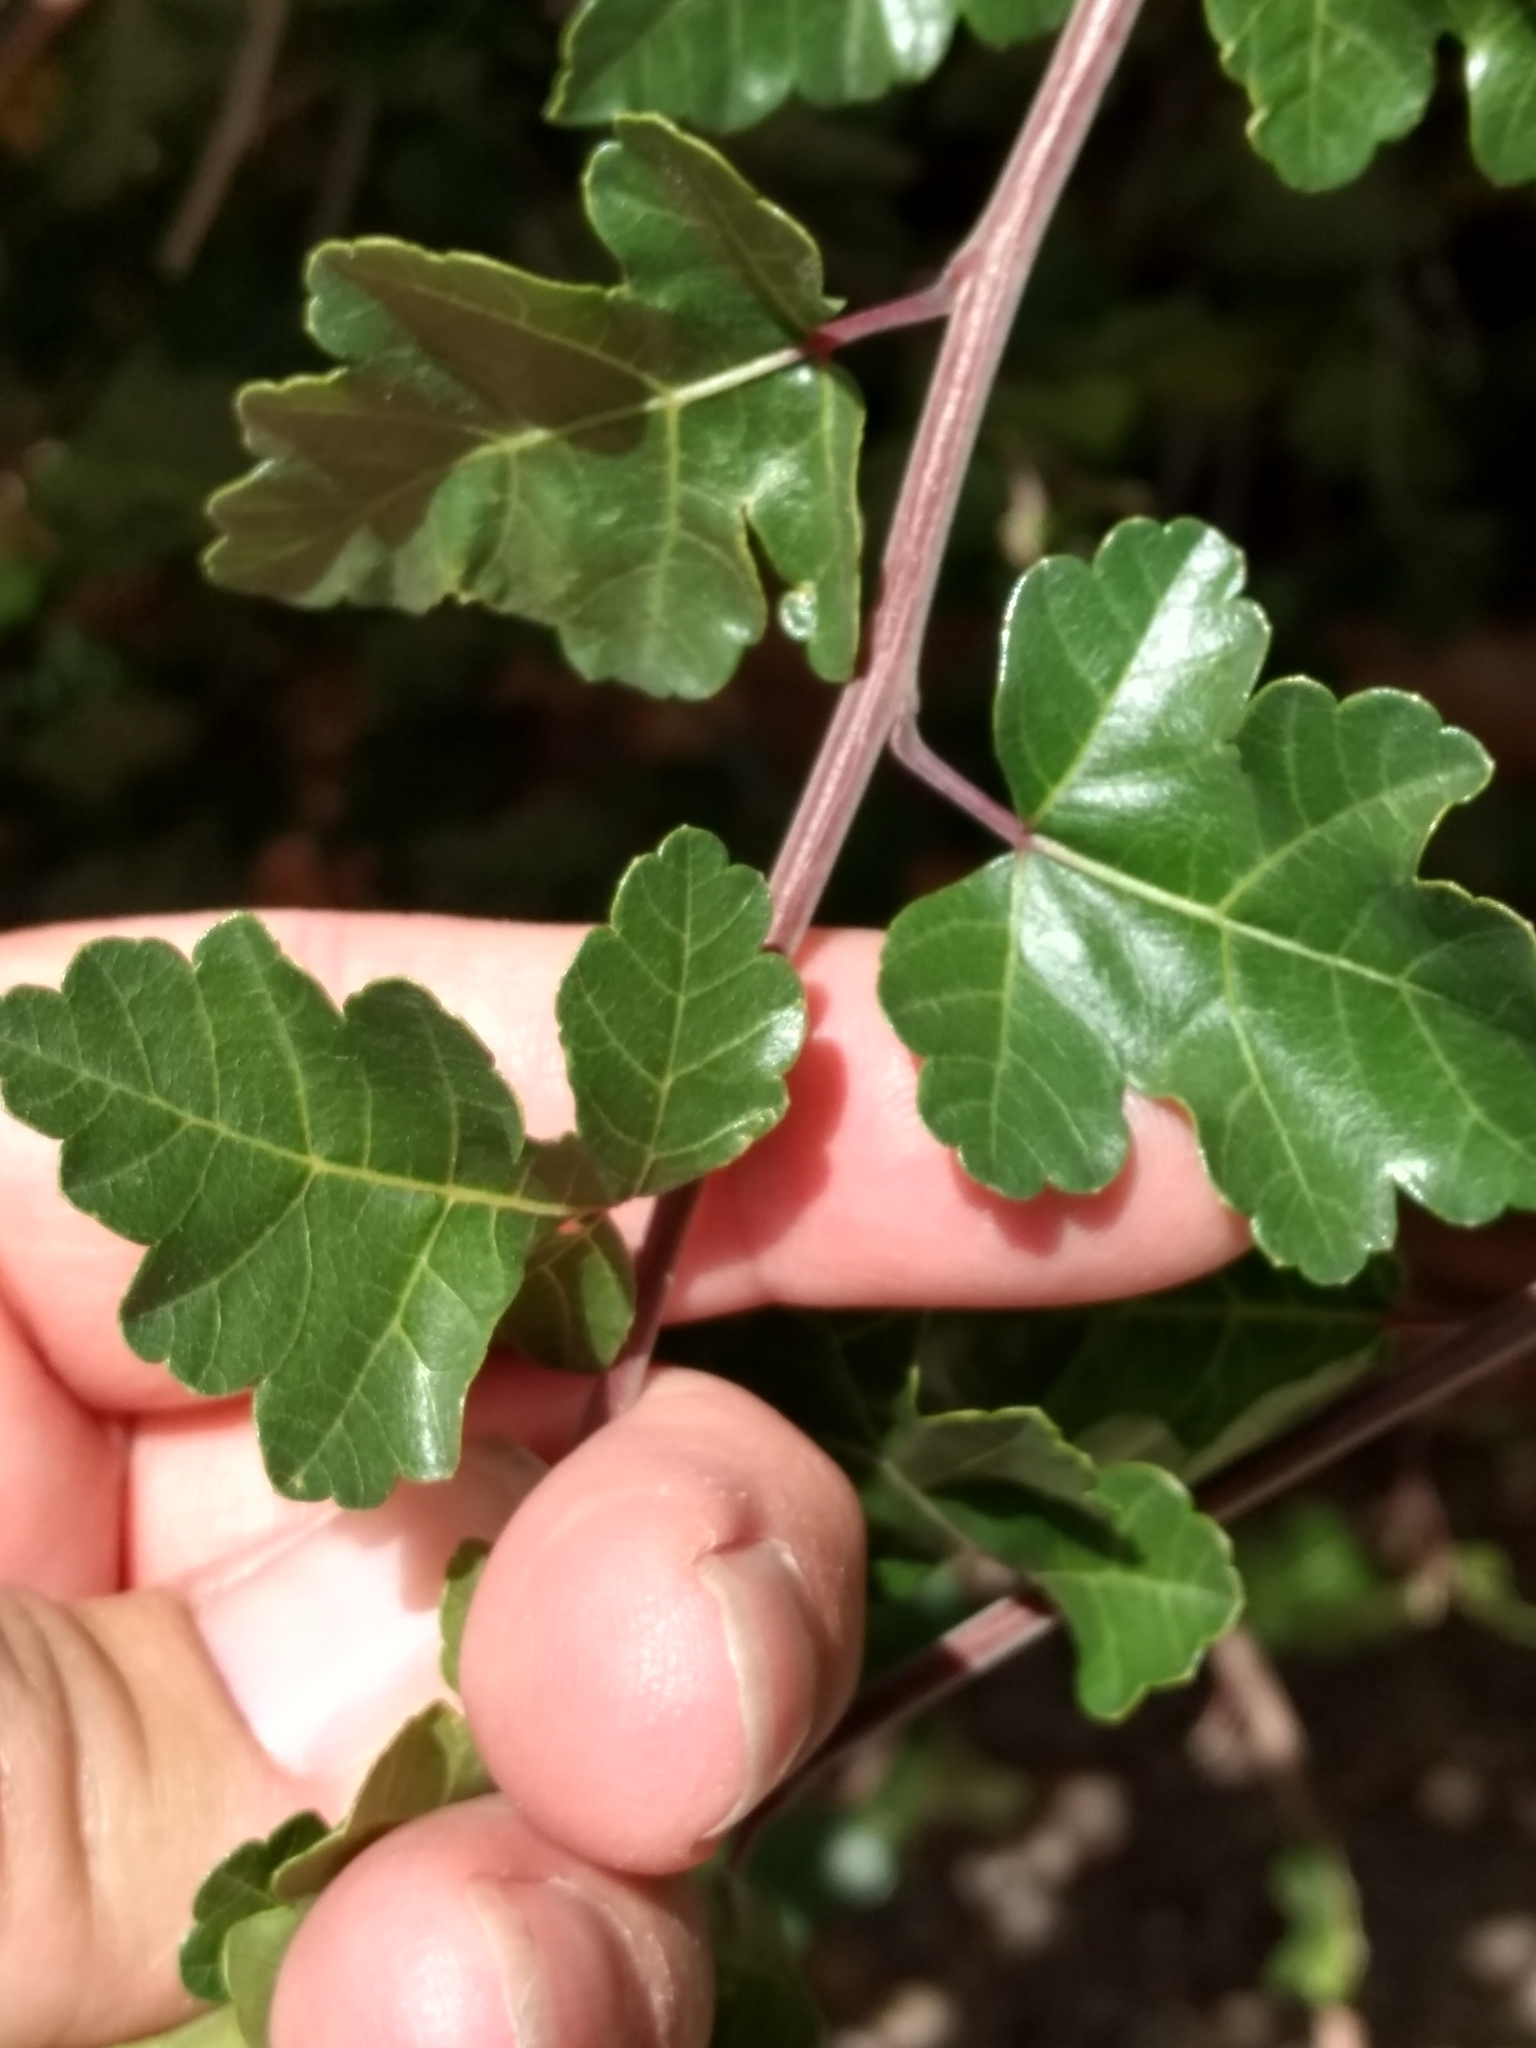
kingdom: Plantae
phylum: Tracheophyta
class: Magnoliopsida
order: Sapindales
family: Anacardiaceae
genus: Rhus
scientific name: Rhus aromatica
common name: Aromatic sumac
